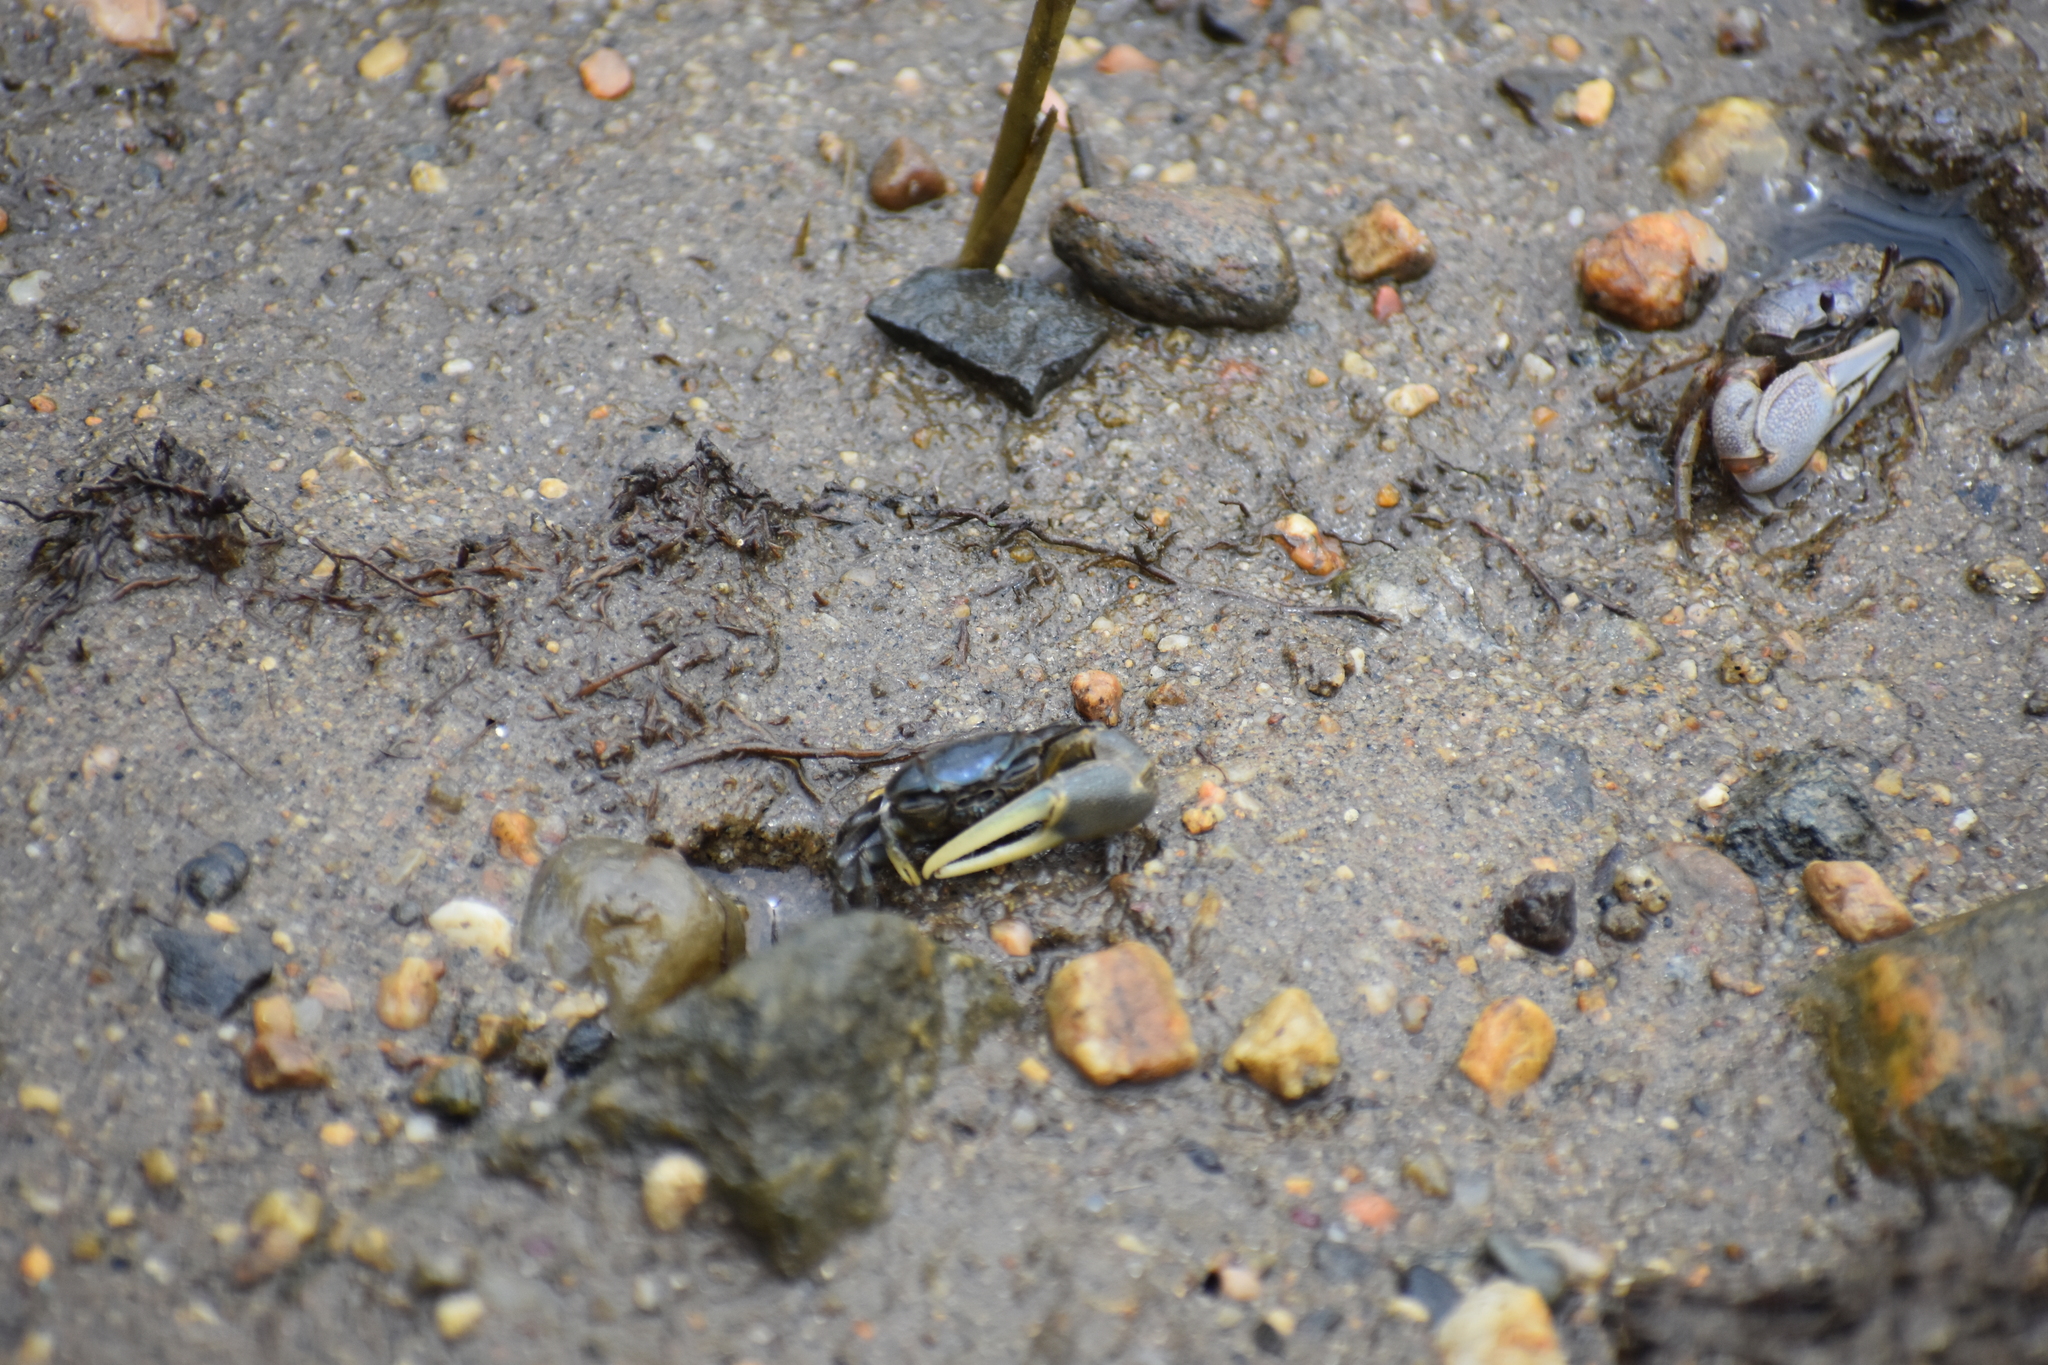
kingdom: Animalia
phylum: Arthropoda
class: Malacostraca
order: Decapoda
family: Ocypodidae
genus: Minuca
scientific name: Minuca pugnax
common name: Mud fiddler crab
